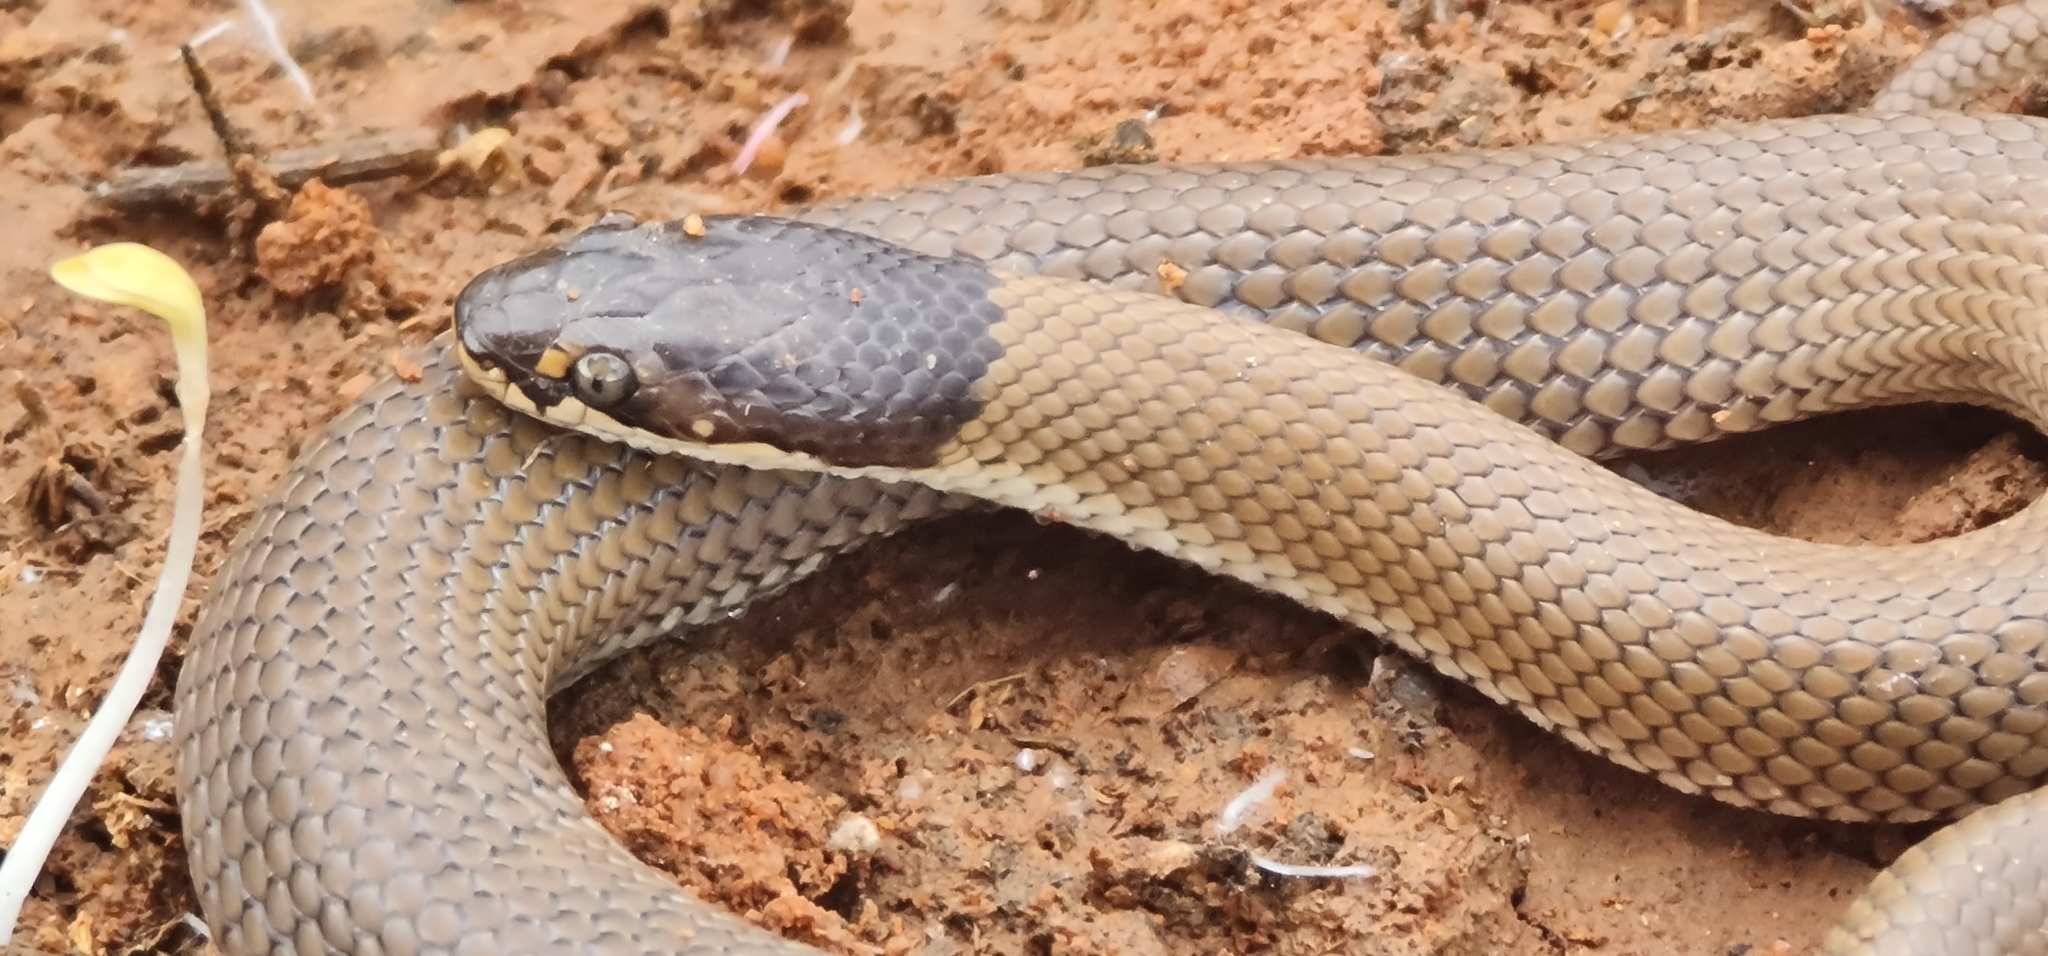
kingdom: Animalia
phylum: Chordata
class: Squamata
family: Elapidae
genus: Suta
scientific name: Suta suta
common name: Curl snake
